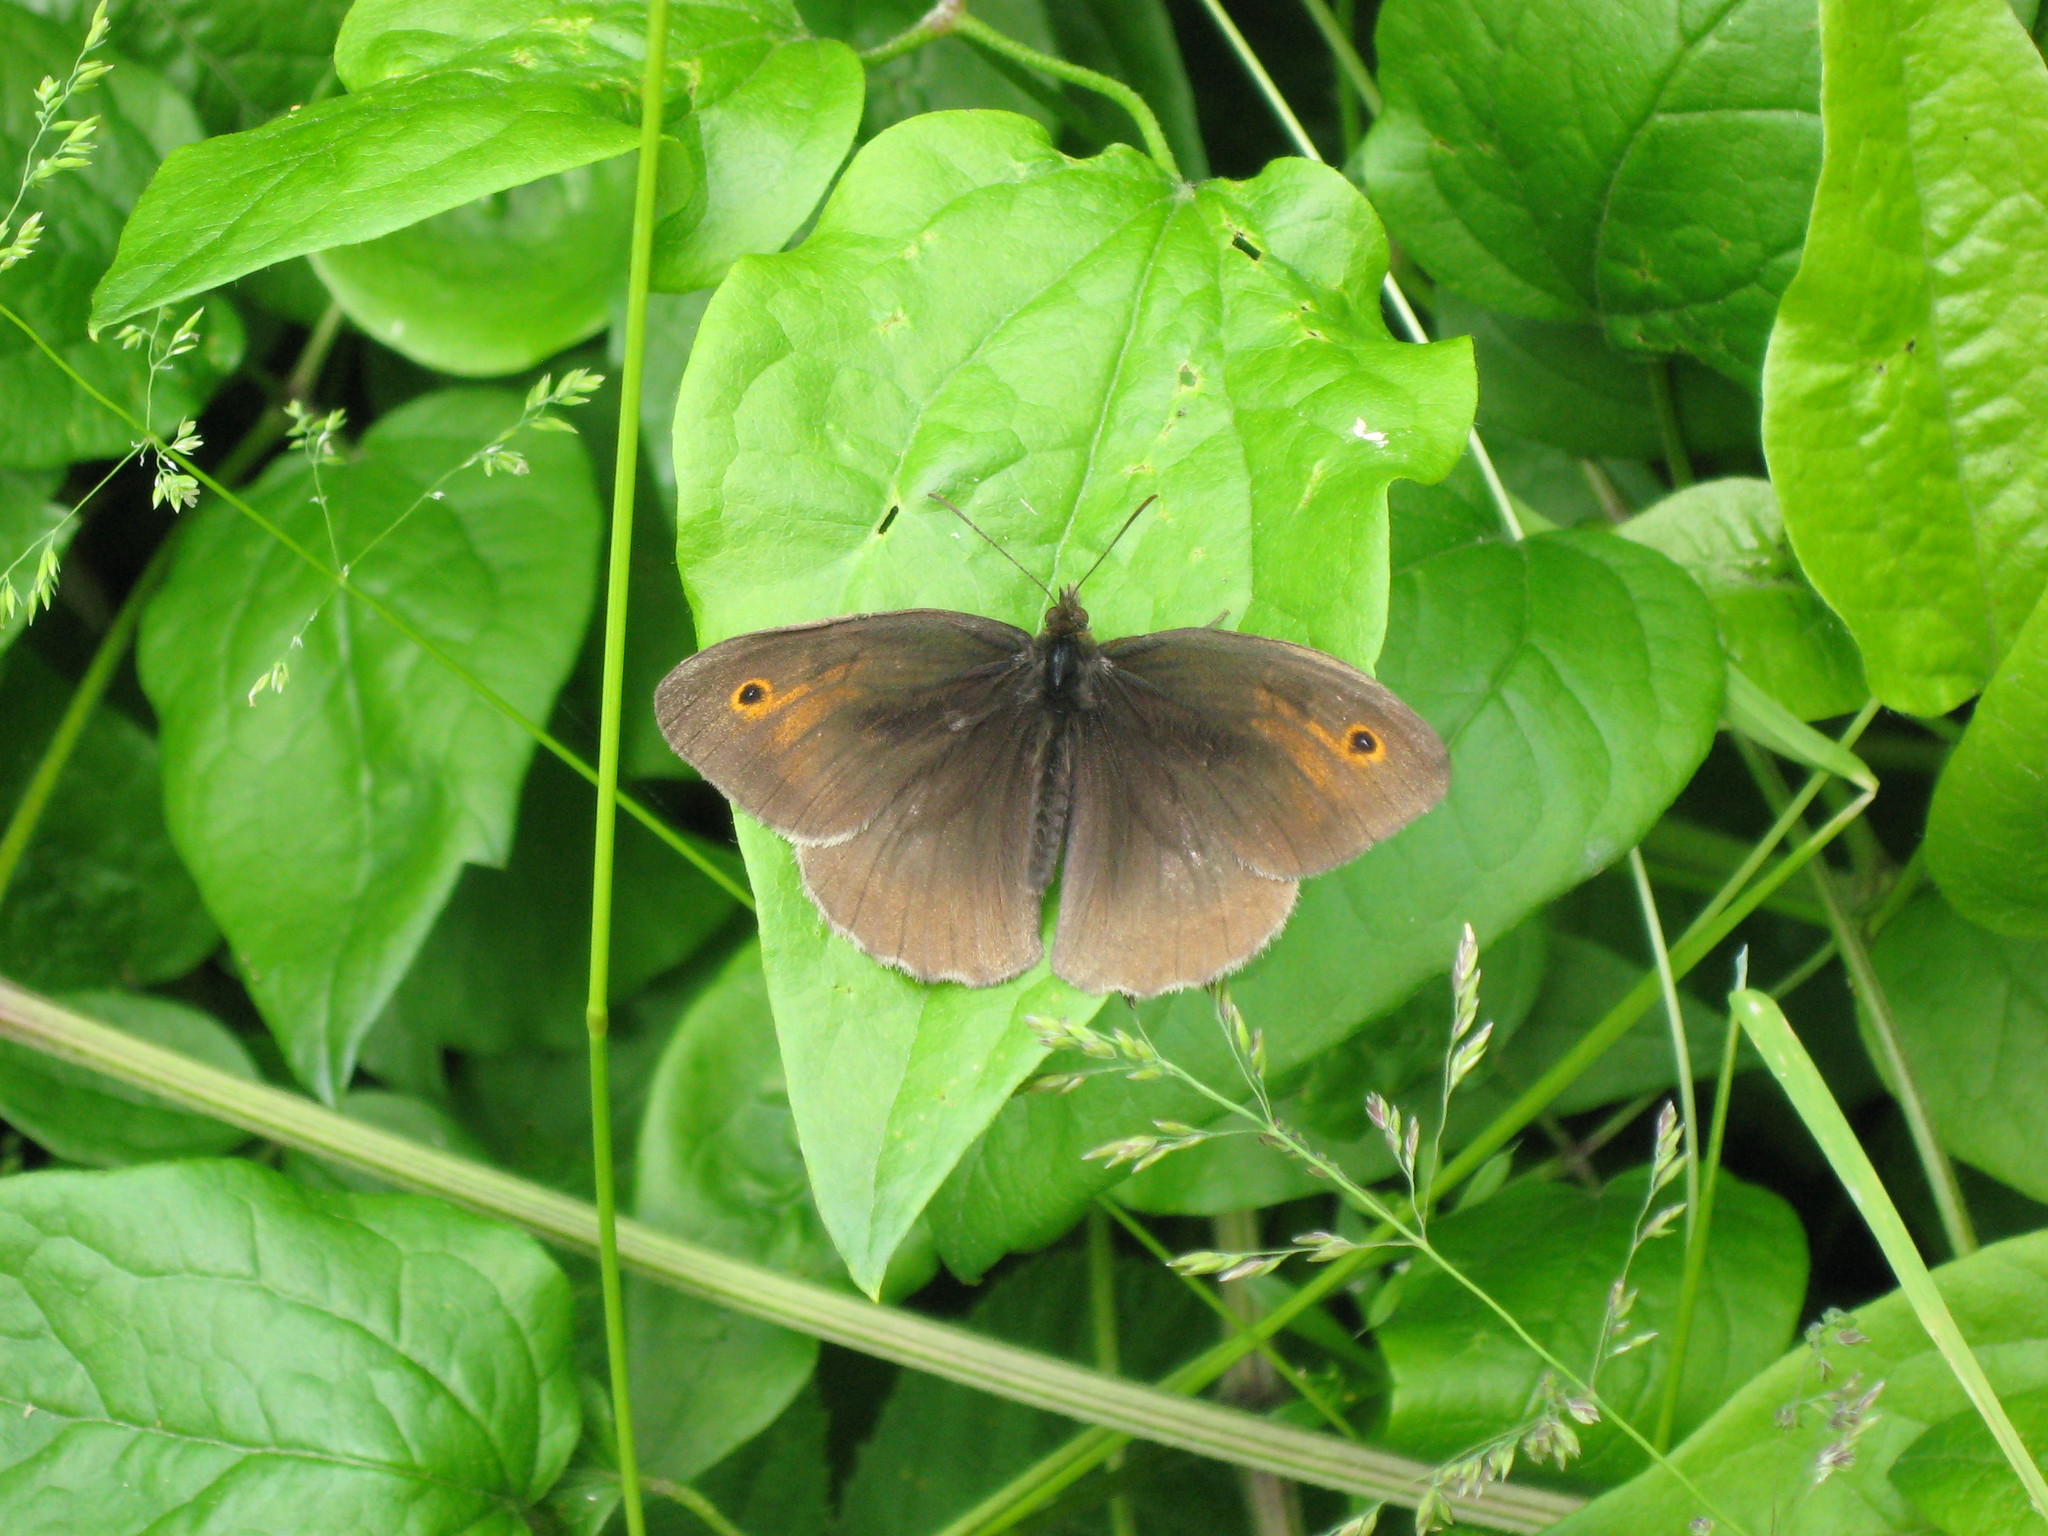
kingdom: Animalia
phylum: Arthropoda
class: Insecta
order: Lepidoptera
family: Nymphalidae
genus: Maniola
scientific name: Maniola jurtina
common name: Meadow brown
